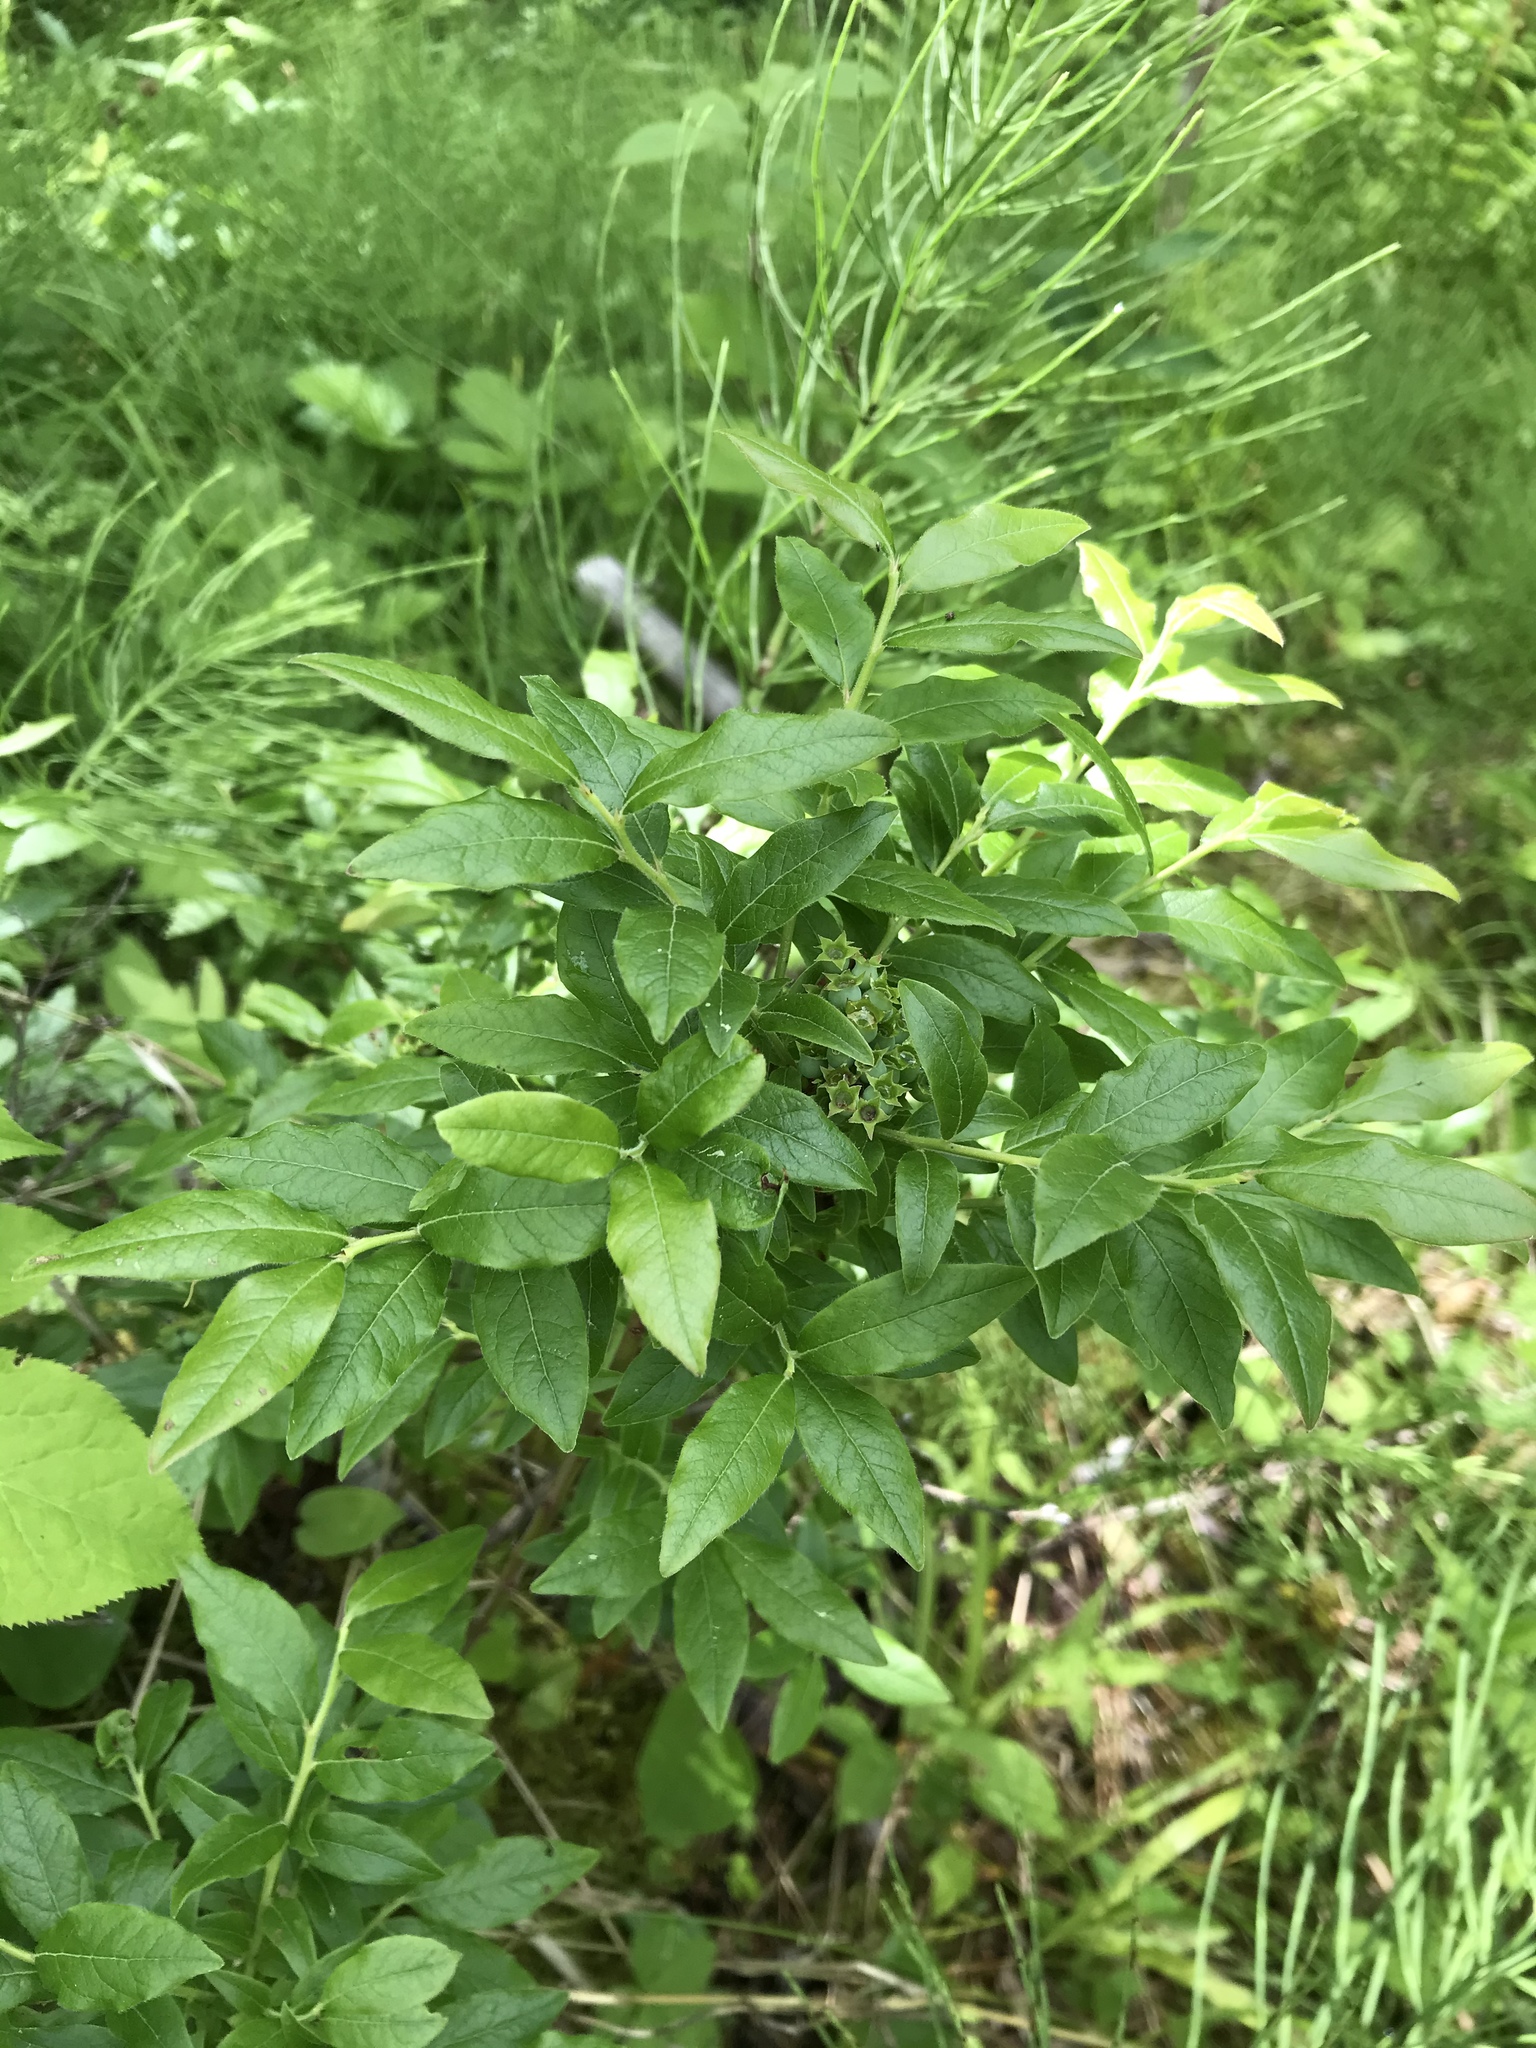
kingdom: Plantae
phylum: Tracheophyta
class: Magnoliopsida
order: Ericales
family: Ericaceae
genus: Vaccinium
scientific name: Vaccinium myrtilloides
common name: Canada blueberry
